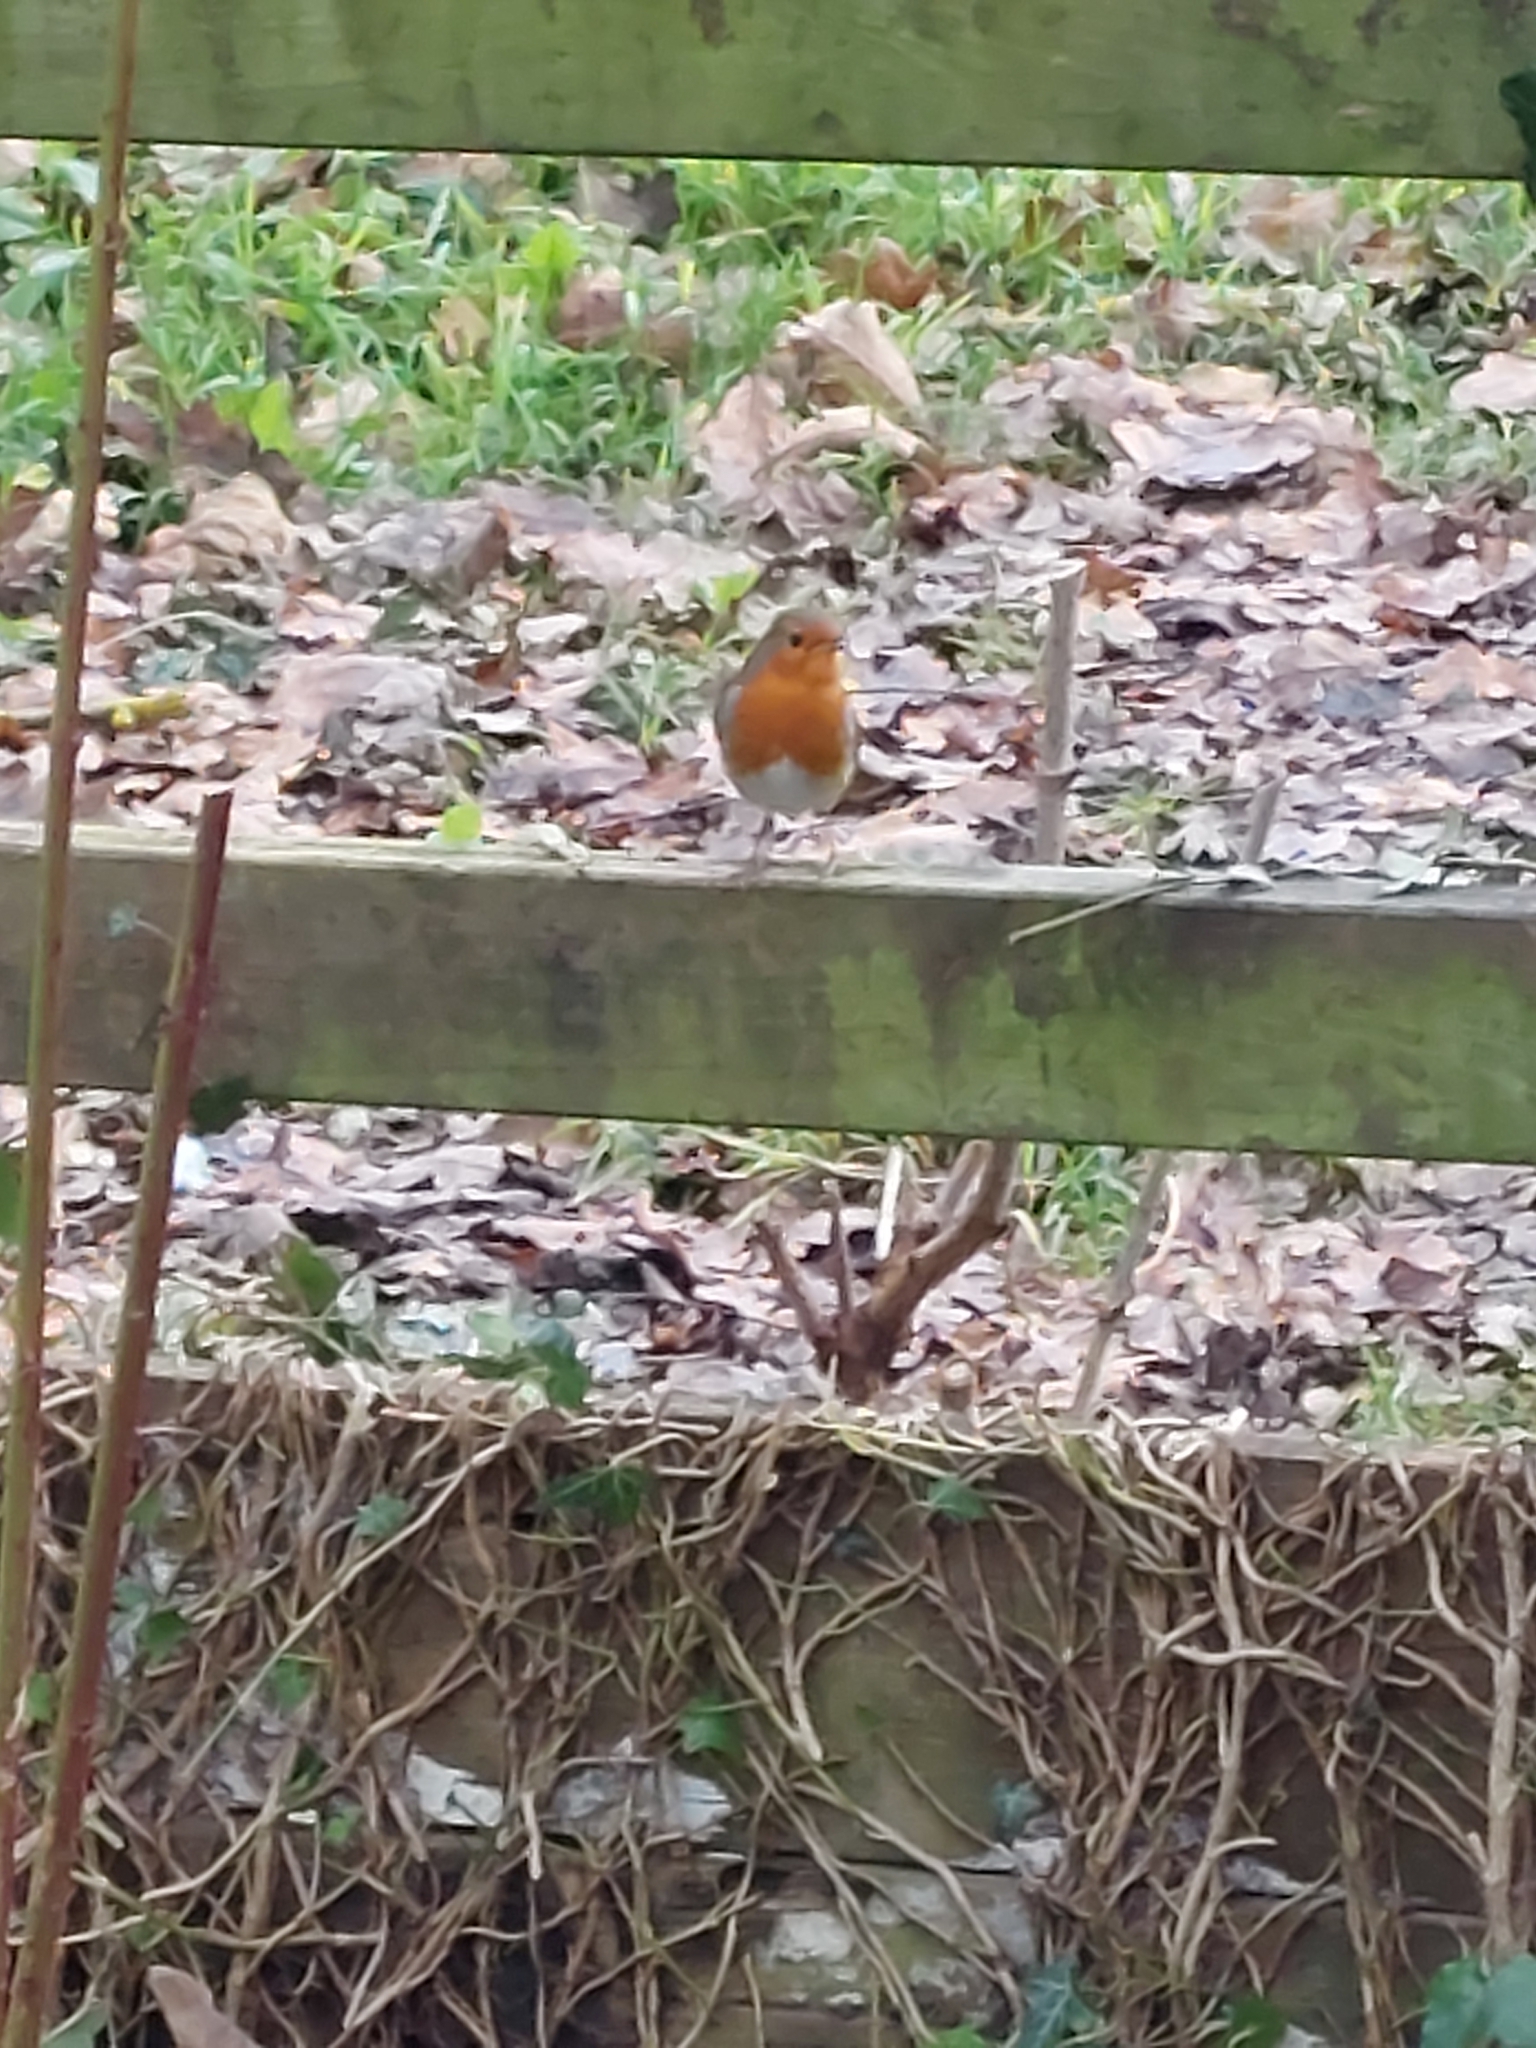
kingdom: Animalia
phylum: Chordata
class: Aves
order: Passeriformes
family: Muscicapidae
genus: Erithacus
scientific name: Erithacus rubecula
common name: European robin
